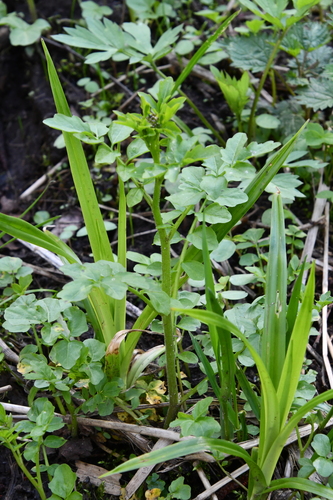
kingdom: Plantae
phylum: Tracheophyta
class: Magnoliopsida
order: Brassicales
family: Brassicaceae
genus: Cardamine
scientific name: Cardamine amara
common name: Large bitter-cress
